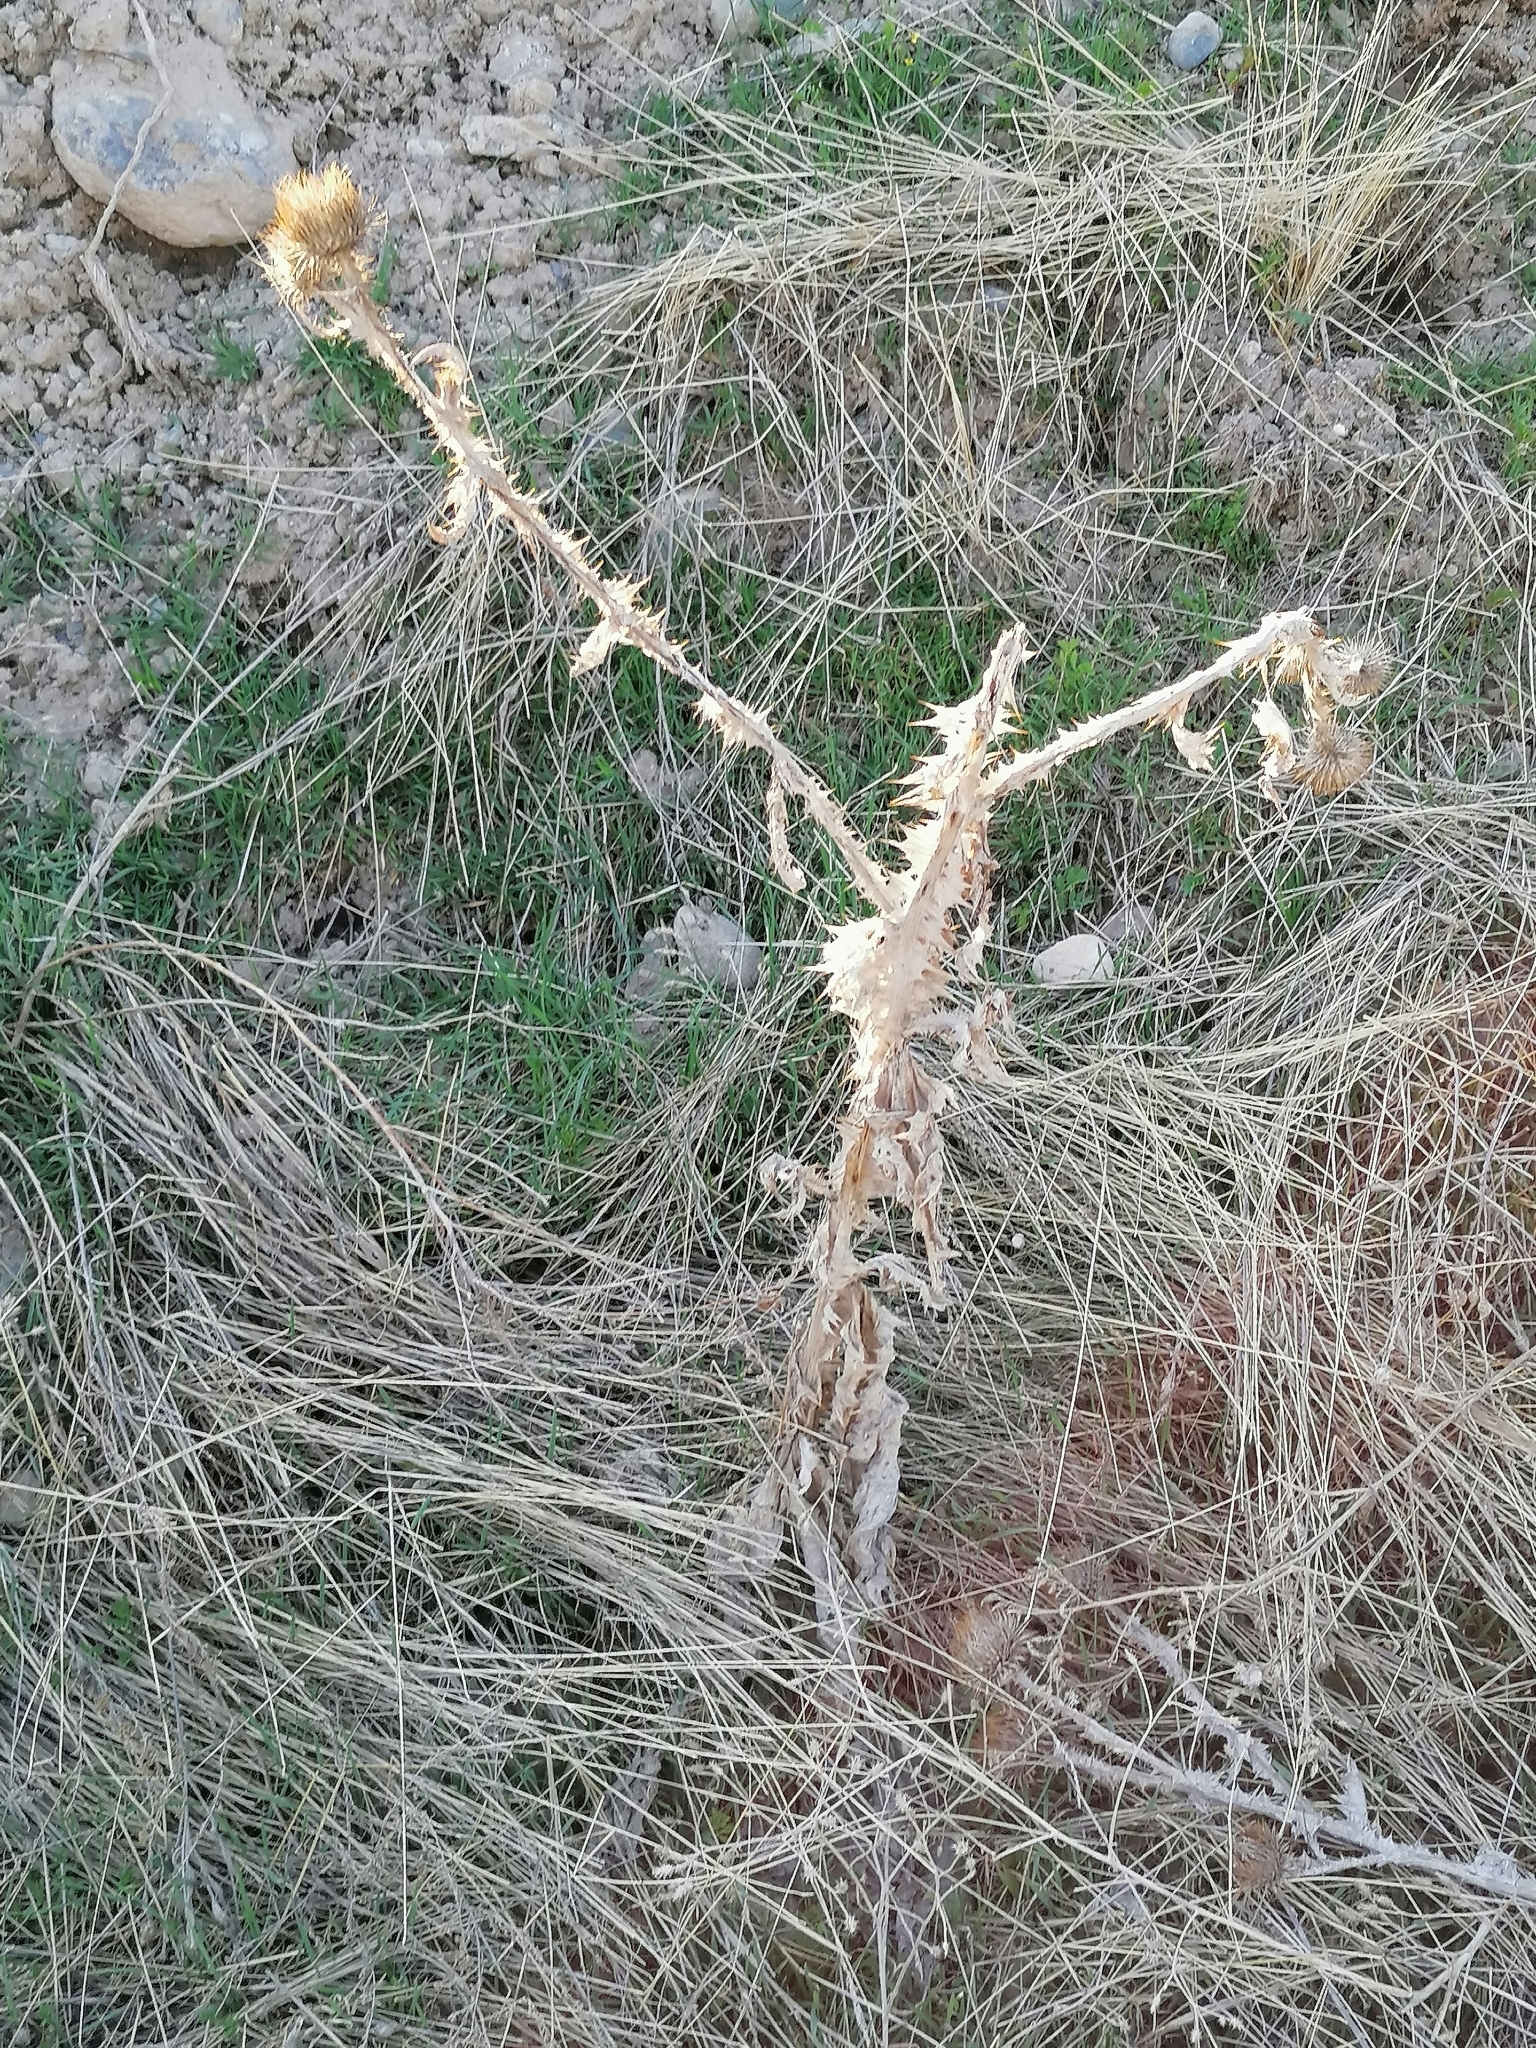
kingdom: Plantae
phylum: Tracheophyta
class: Magnoliopsida
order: Asterales
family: Asteraceae
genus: Onopordum
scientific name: Onopordum acanthium
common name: Scotch thistle
